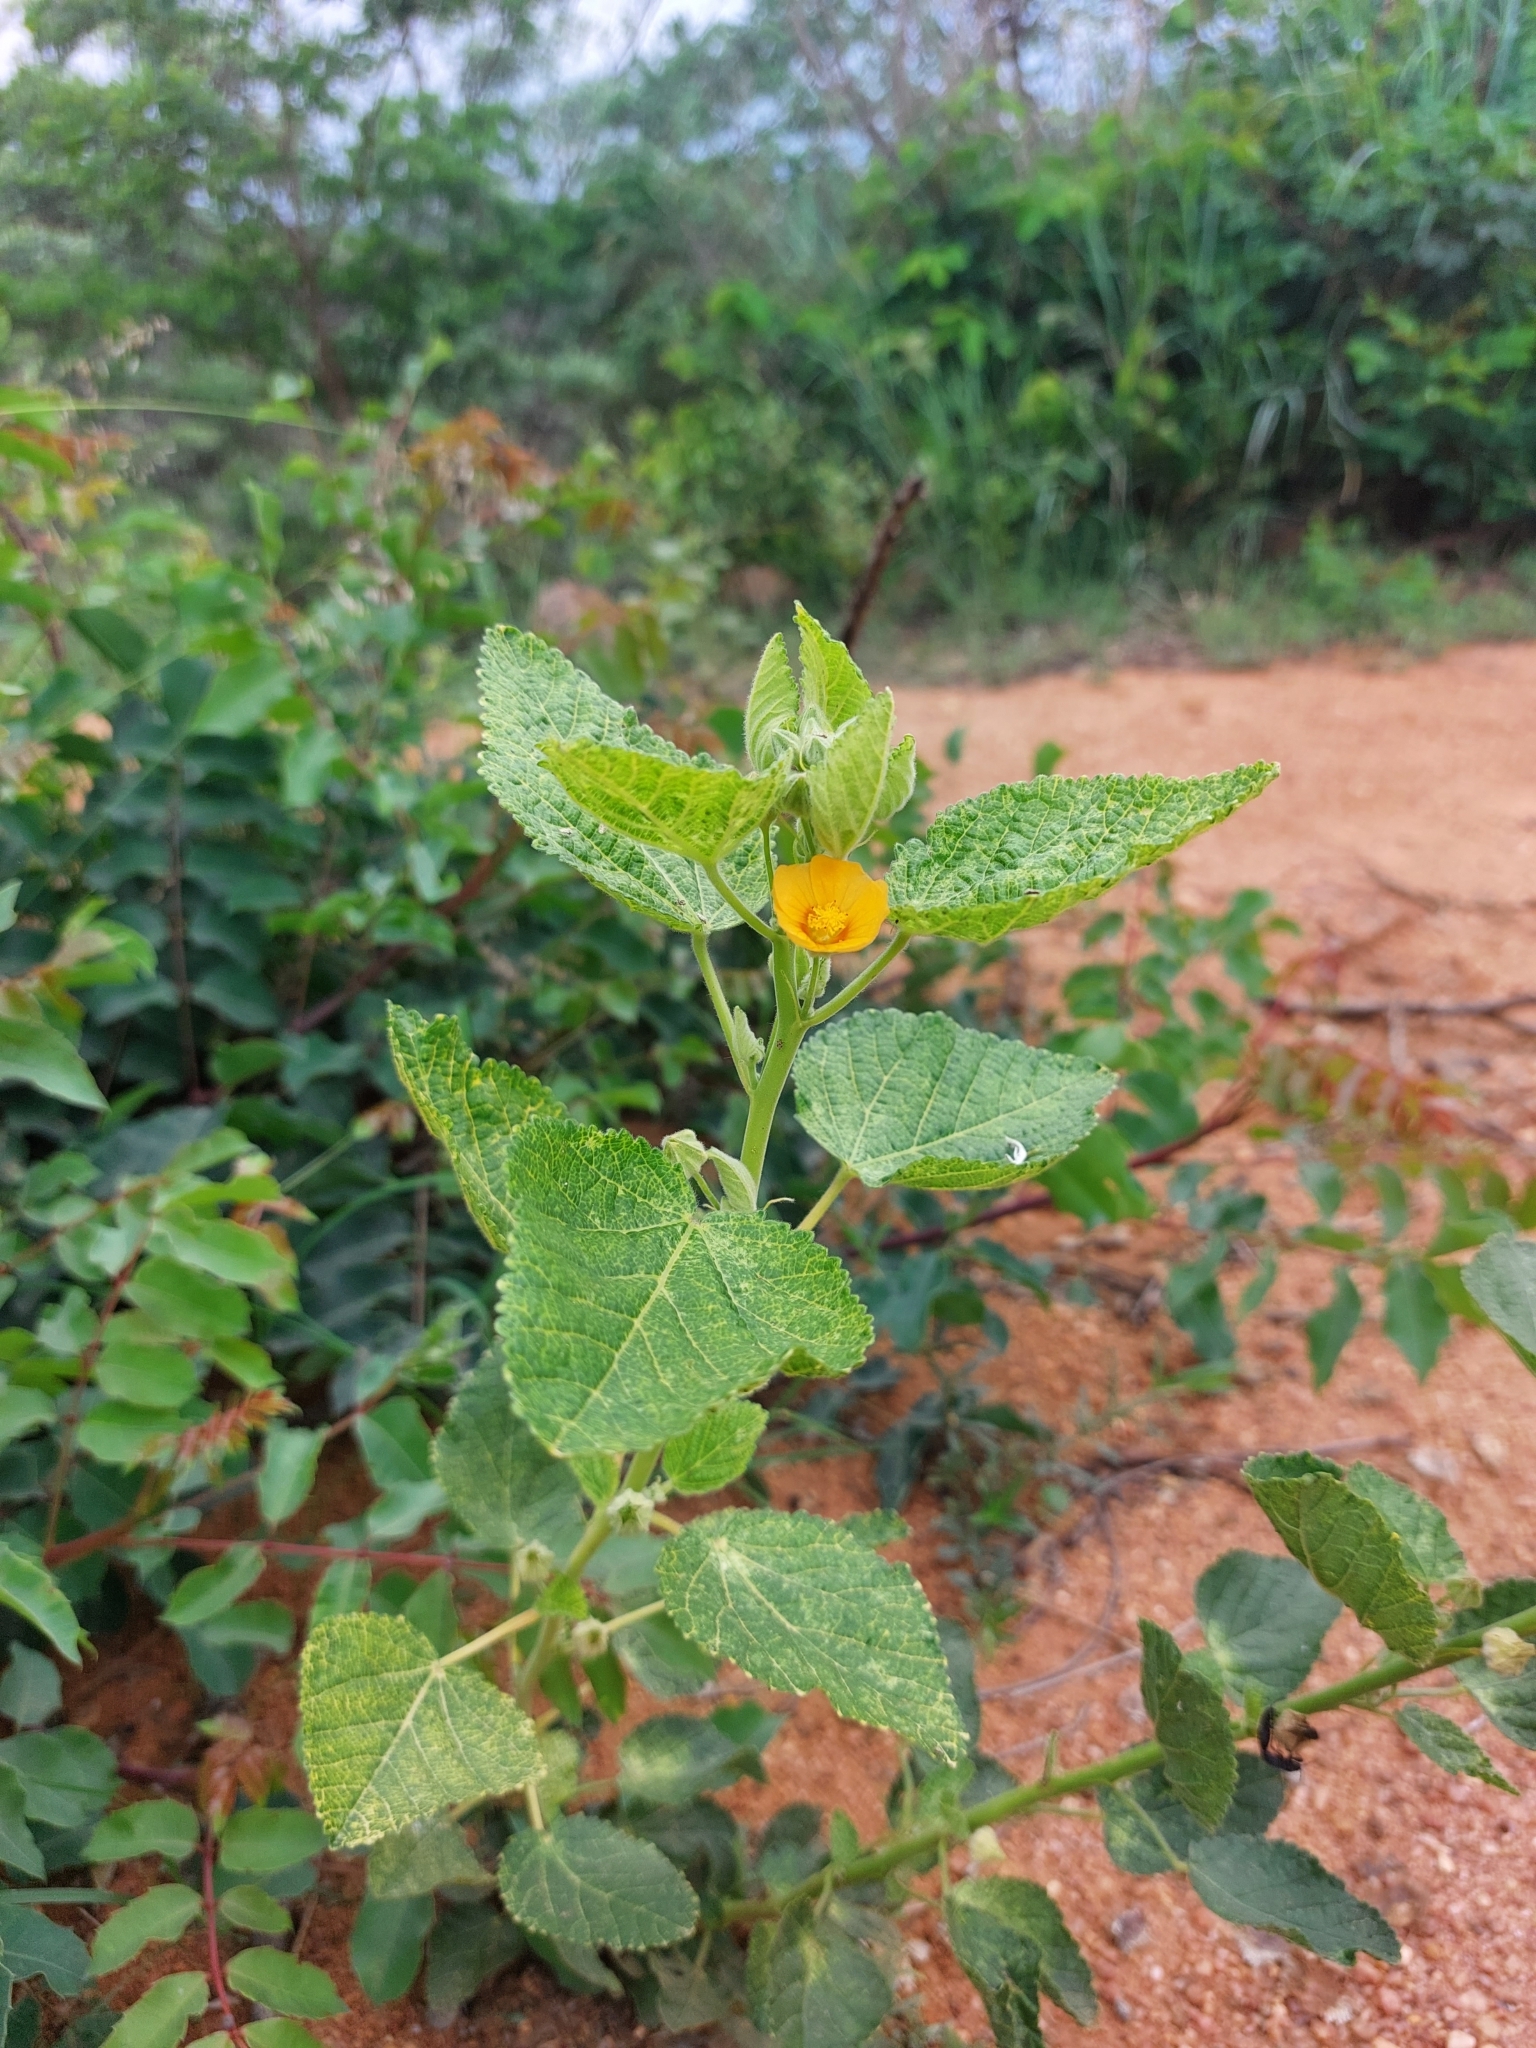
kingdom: Plantae
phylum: Tracheophyta
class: Magnoliopsida
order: Malvales
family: Malvaceae
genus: Sida
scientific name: Sida cordifolia
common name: Ilima
